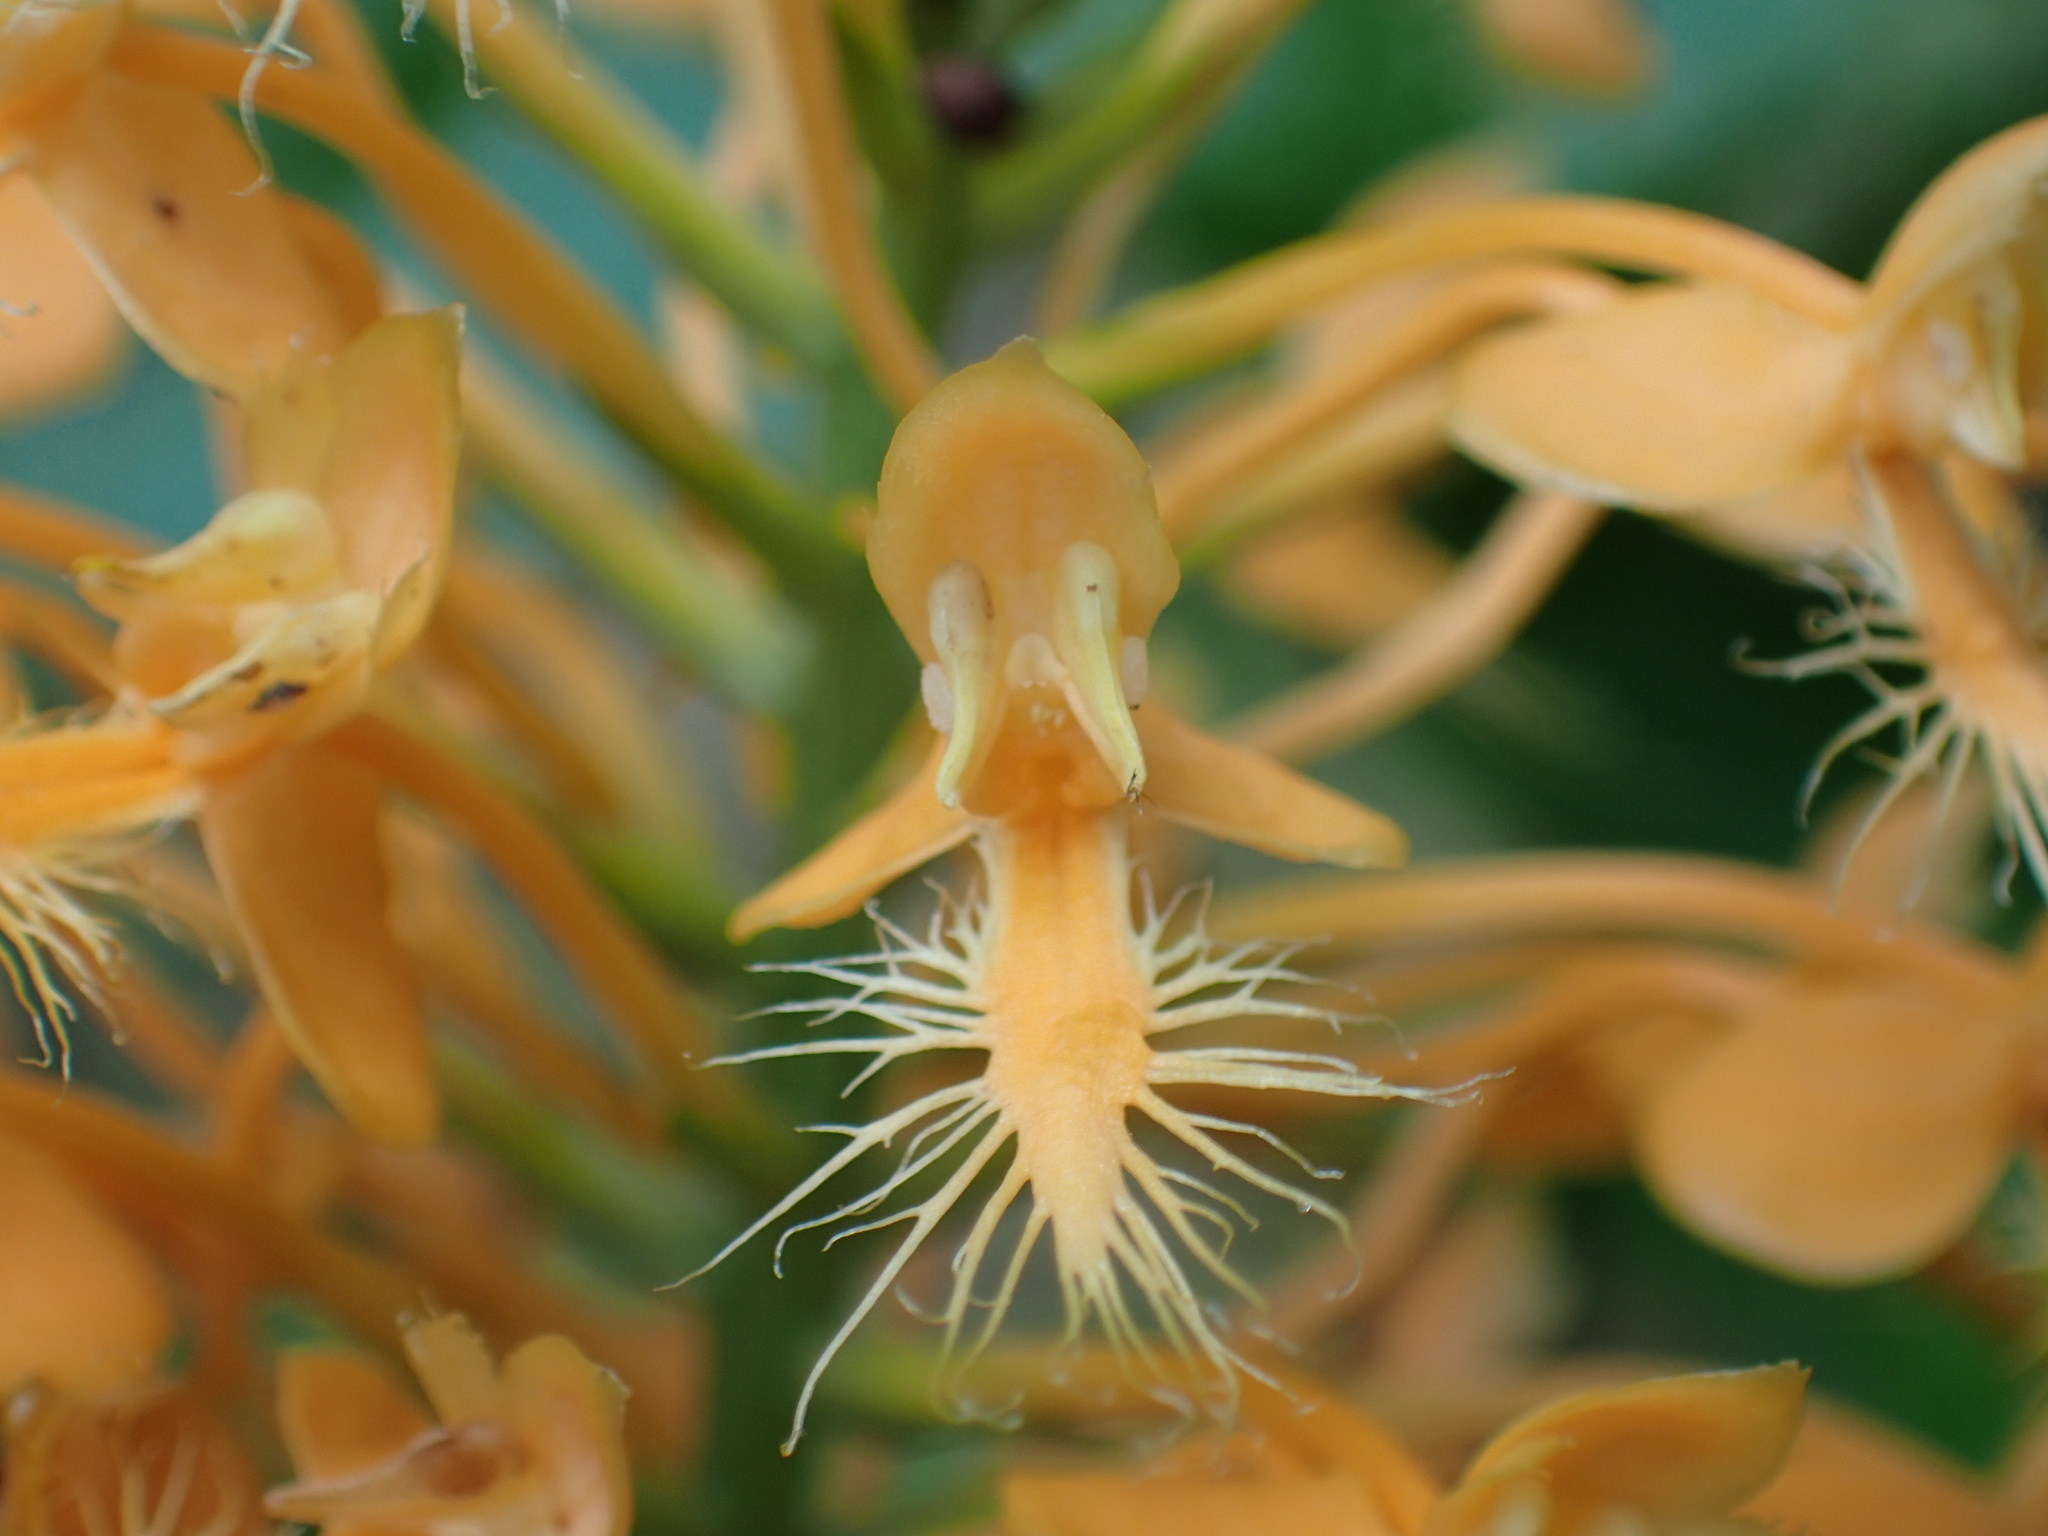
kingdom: Plantae
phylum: Tracheophyta
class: Liliopsida
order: Asparagales
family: Orchidaceae
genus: Platanthera
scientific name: Platanthera ciliaris
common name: Yellow fringed orchid
